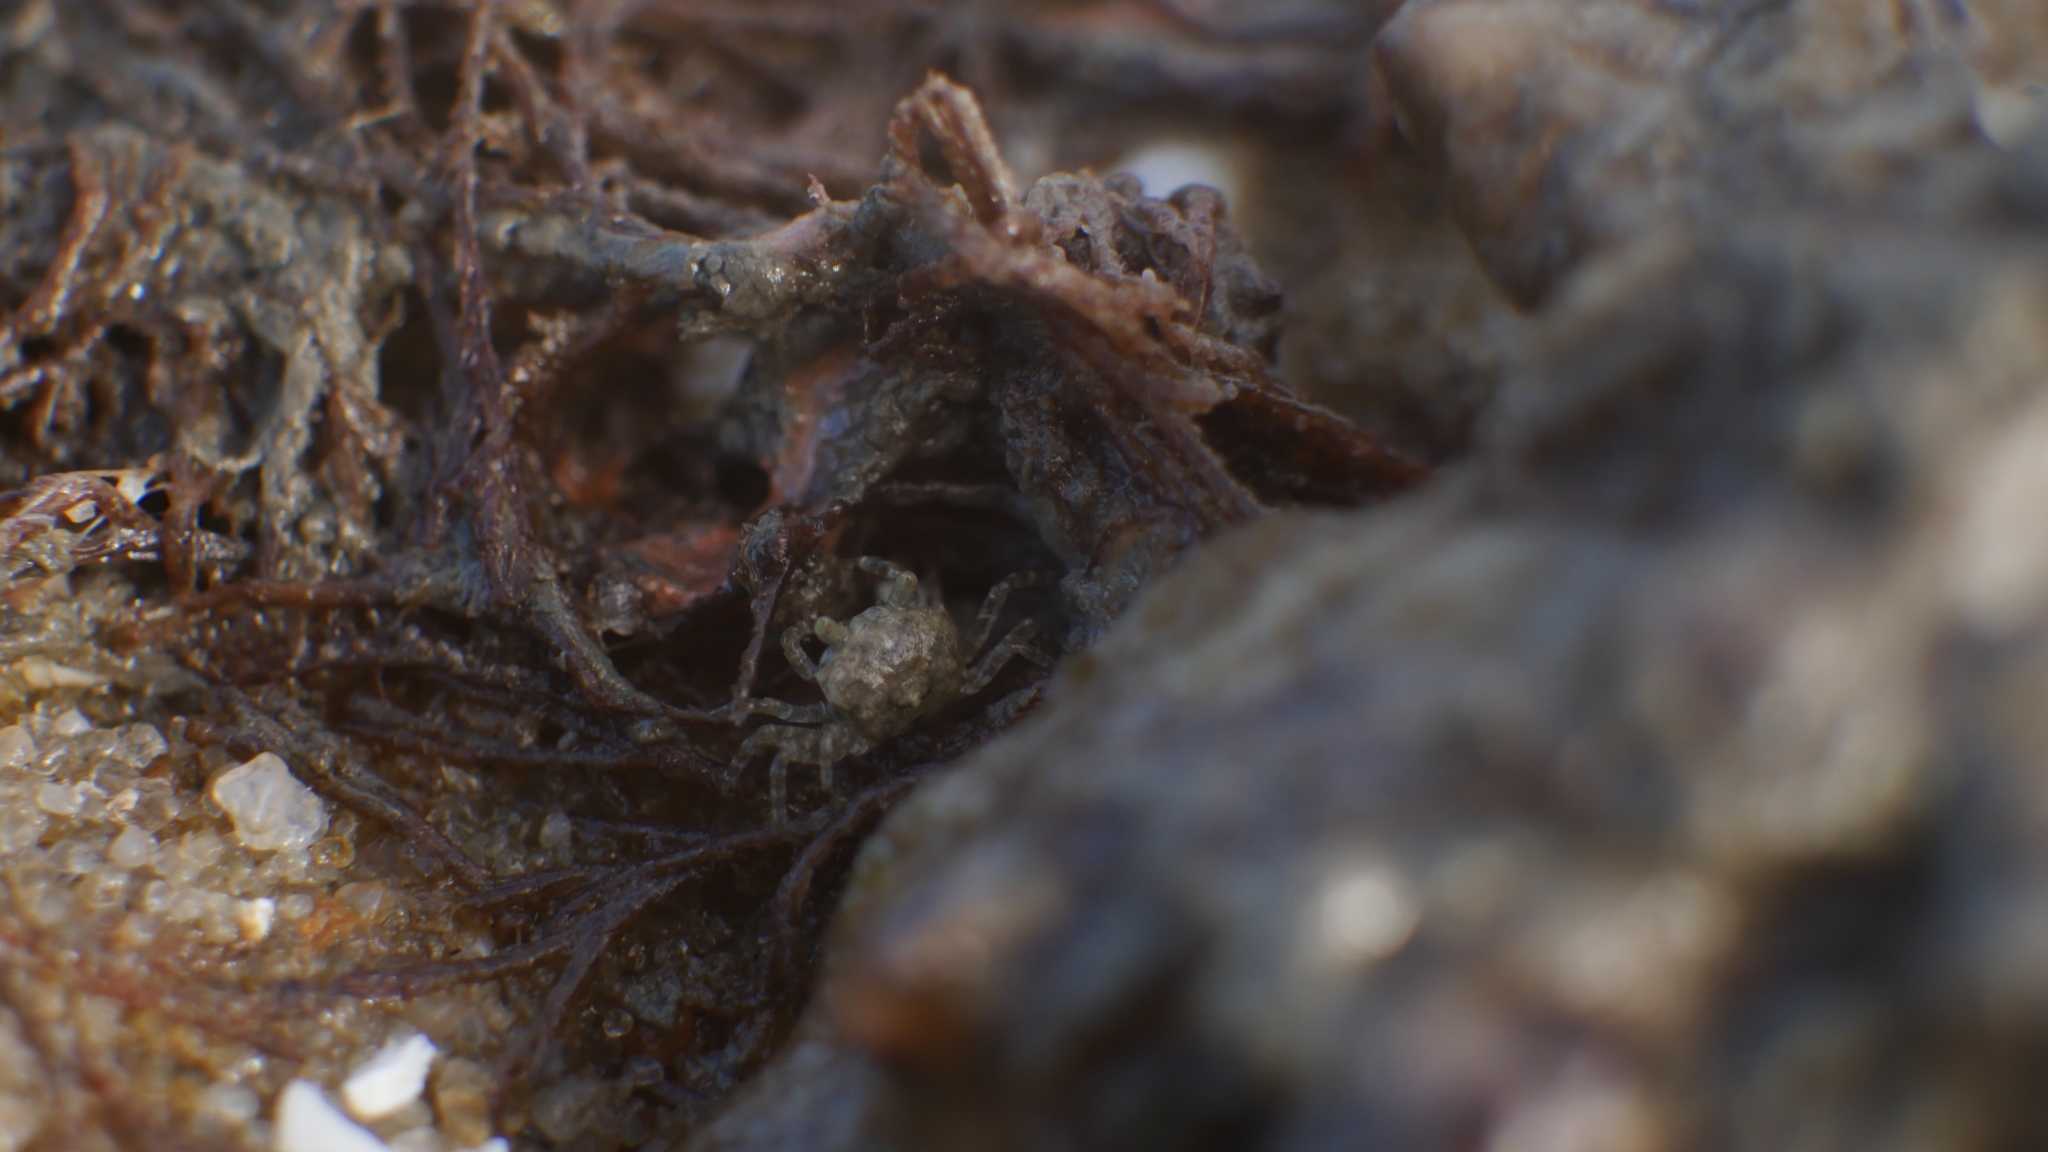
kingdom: Animalia
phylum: Arthropoda
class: Malacostraca
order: Decapoda
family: Ocypodidae
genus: Ocypode
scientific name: Ocypode quadrata
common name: Ghost crab
